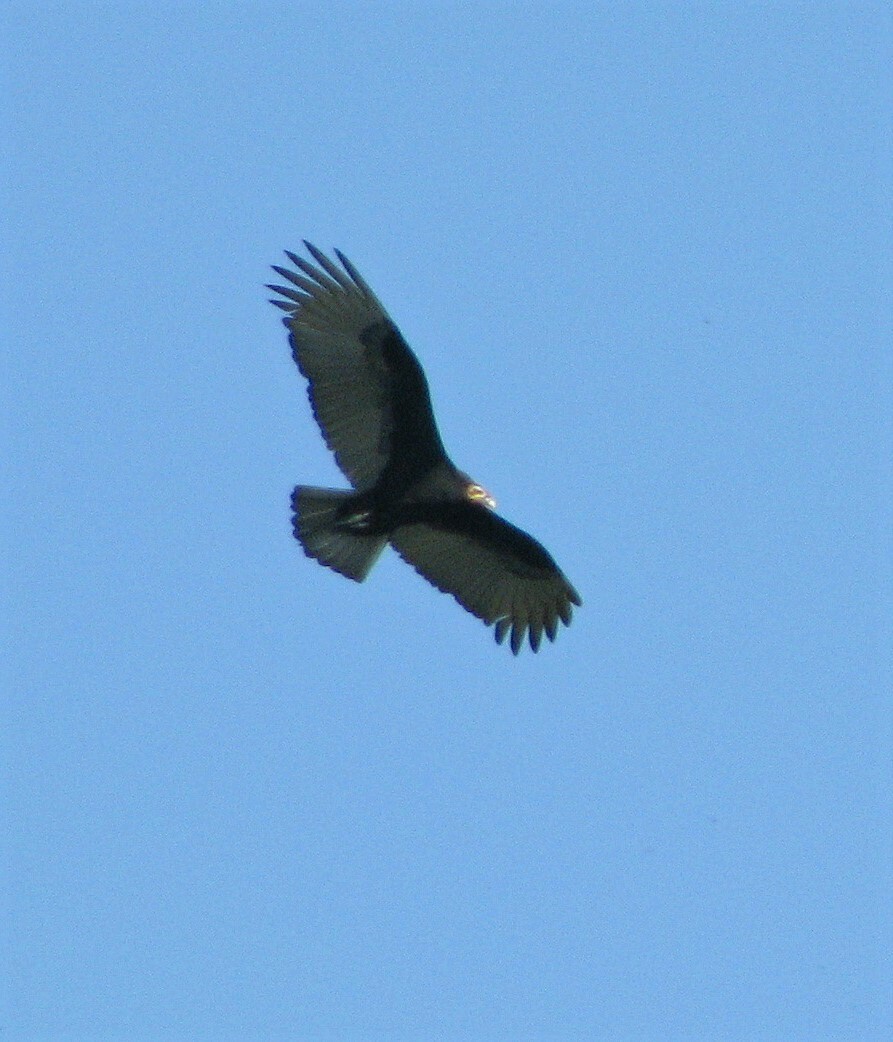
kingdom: Animalia
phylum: Chordata
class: Aves
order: Accipitriformes
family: Cathartidae
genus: Cathartes
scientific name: Cathartes burrovianus
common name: Lesser yellow-headed vulture
